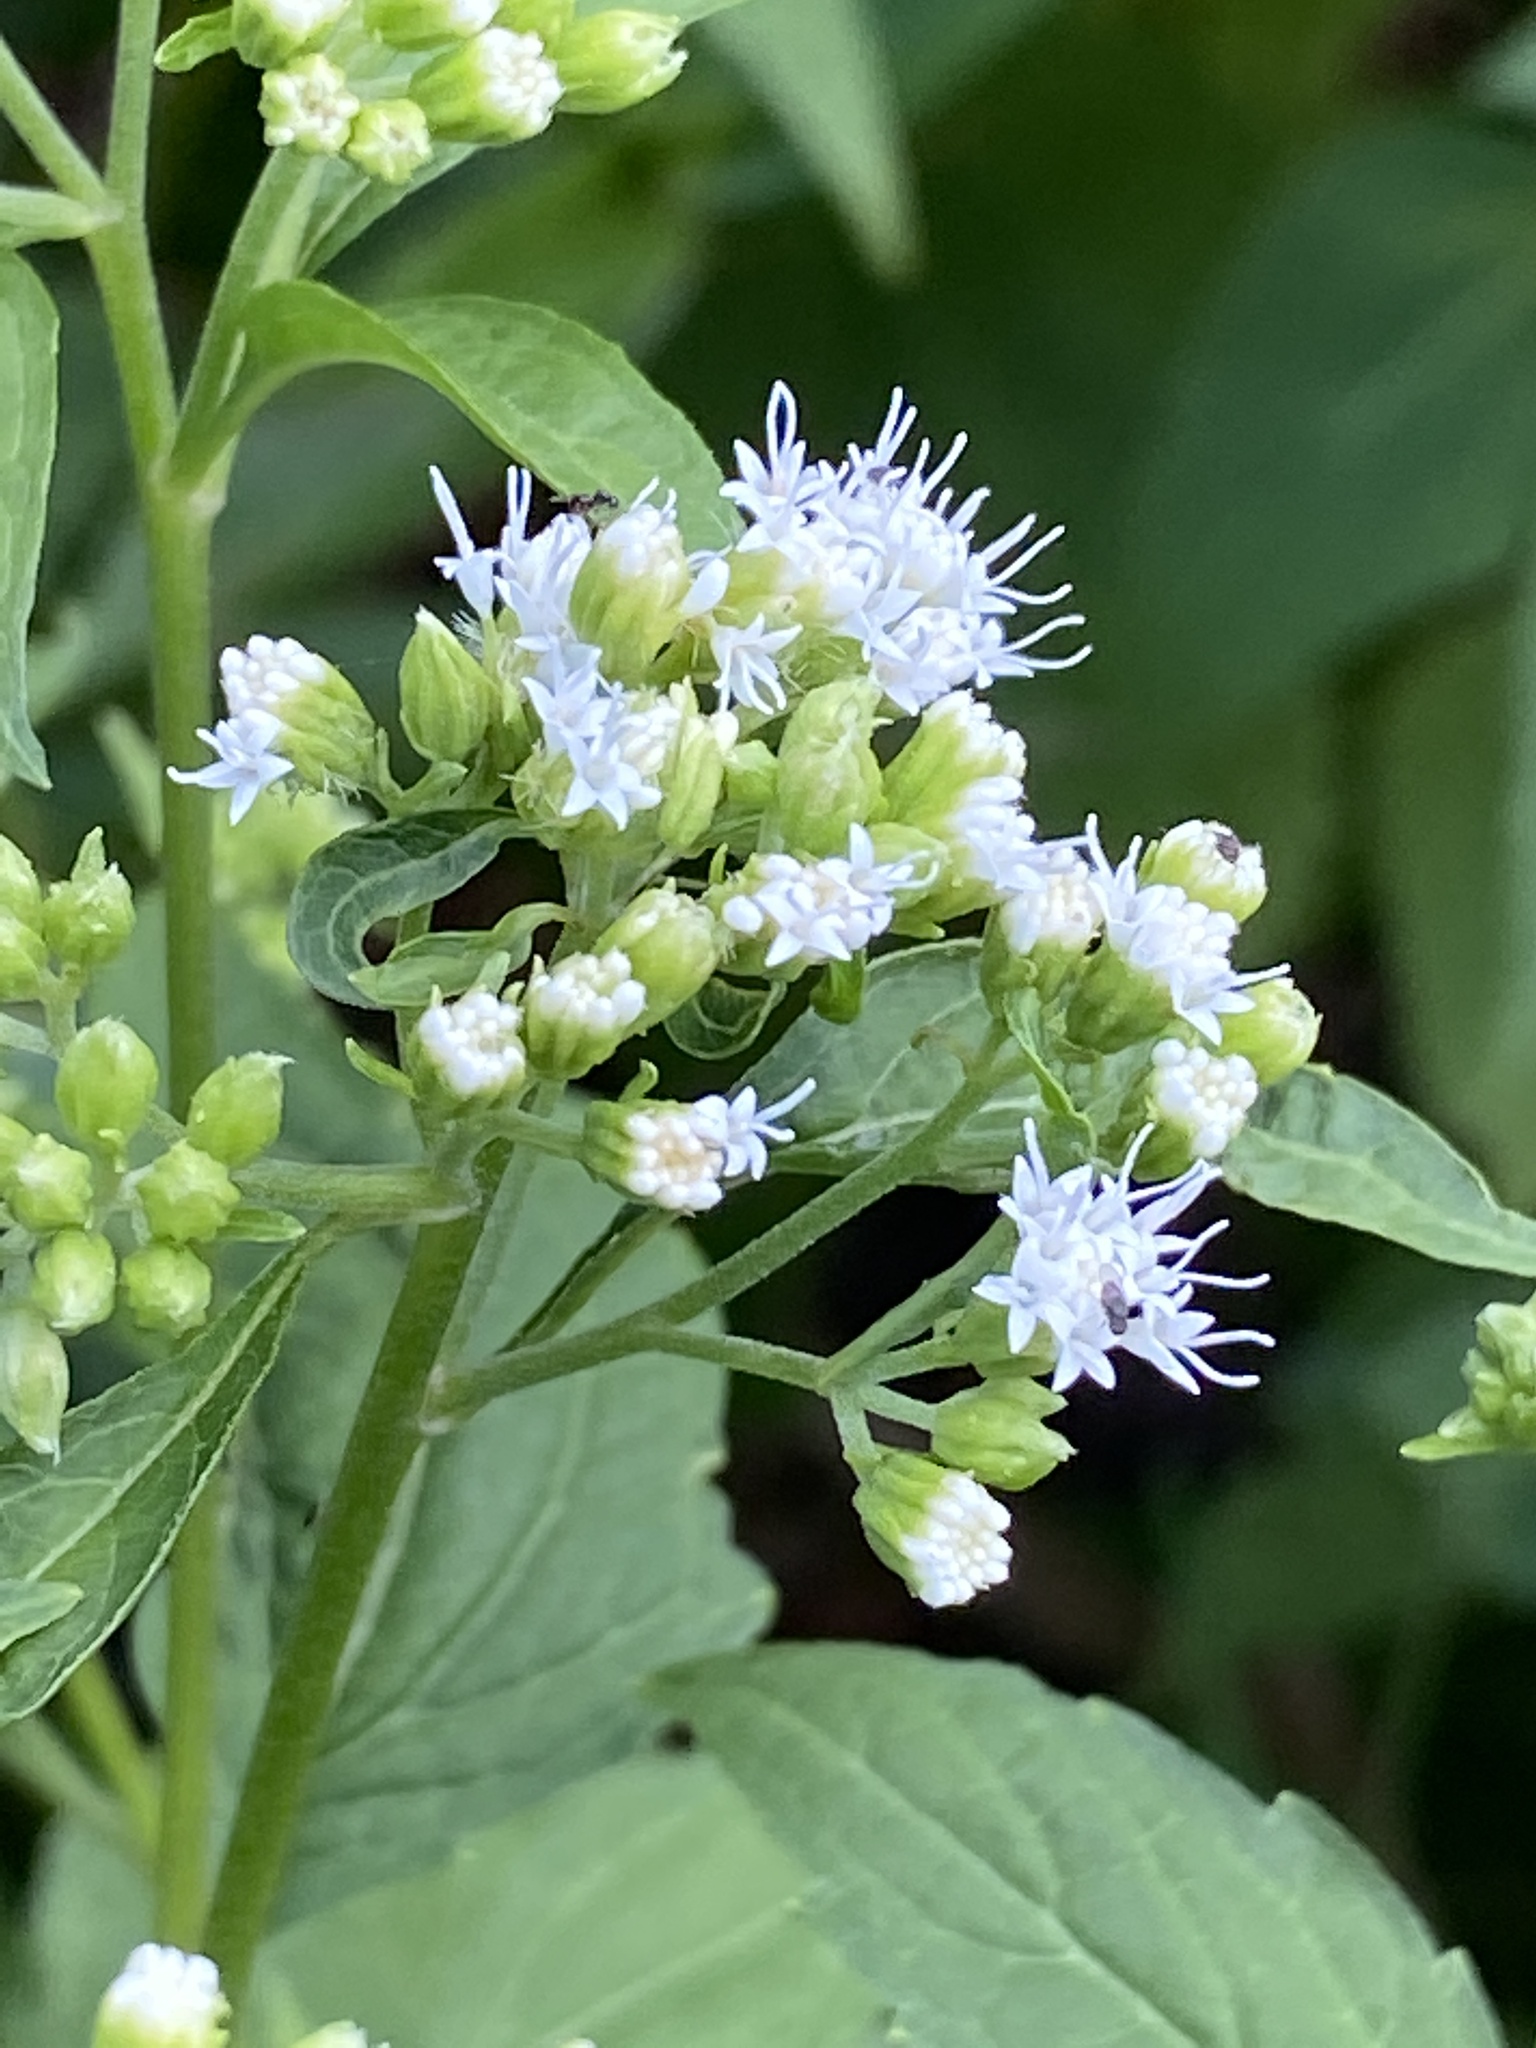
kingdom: Plantae
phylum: Tracheophyta
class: Magnoliopsida
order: Asterales
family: Asteraceae
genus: Ageratina
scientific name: Ageratina altissima
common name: White snakeroot
